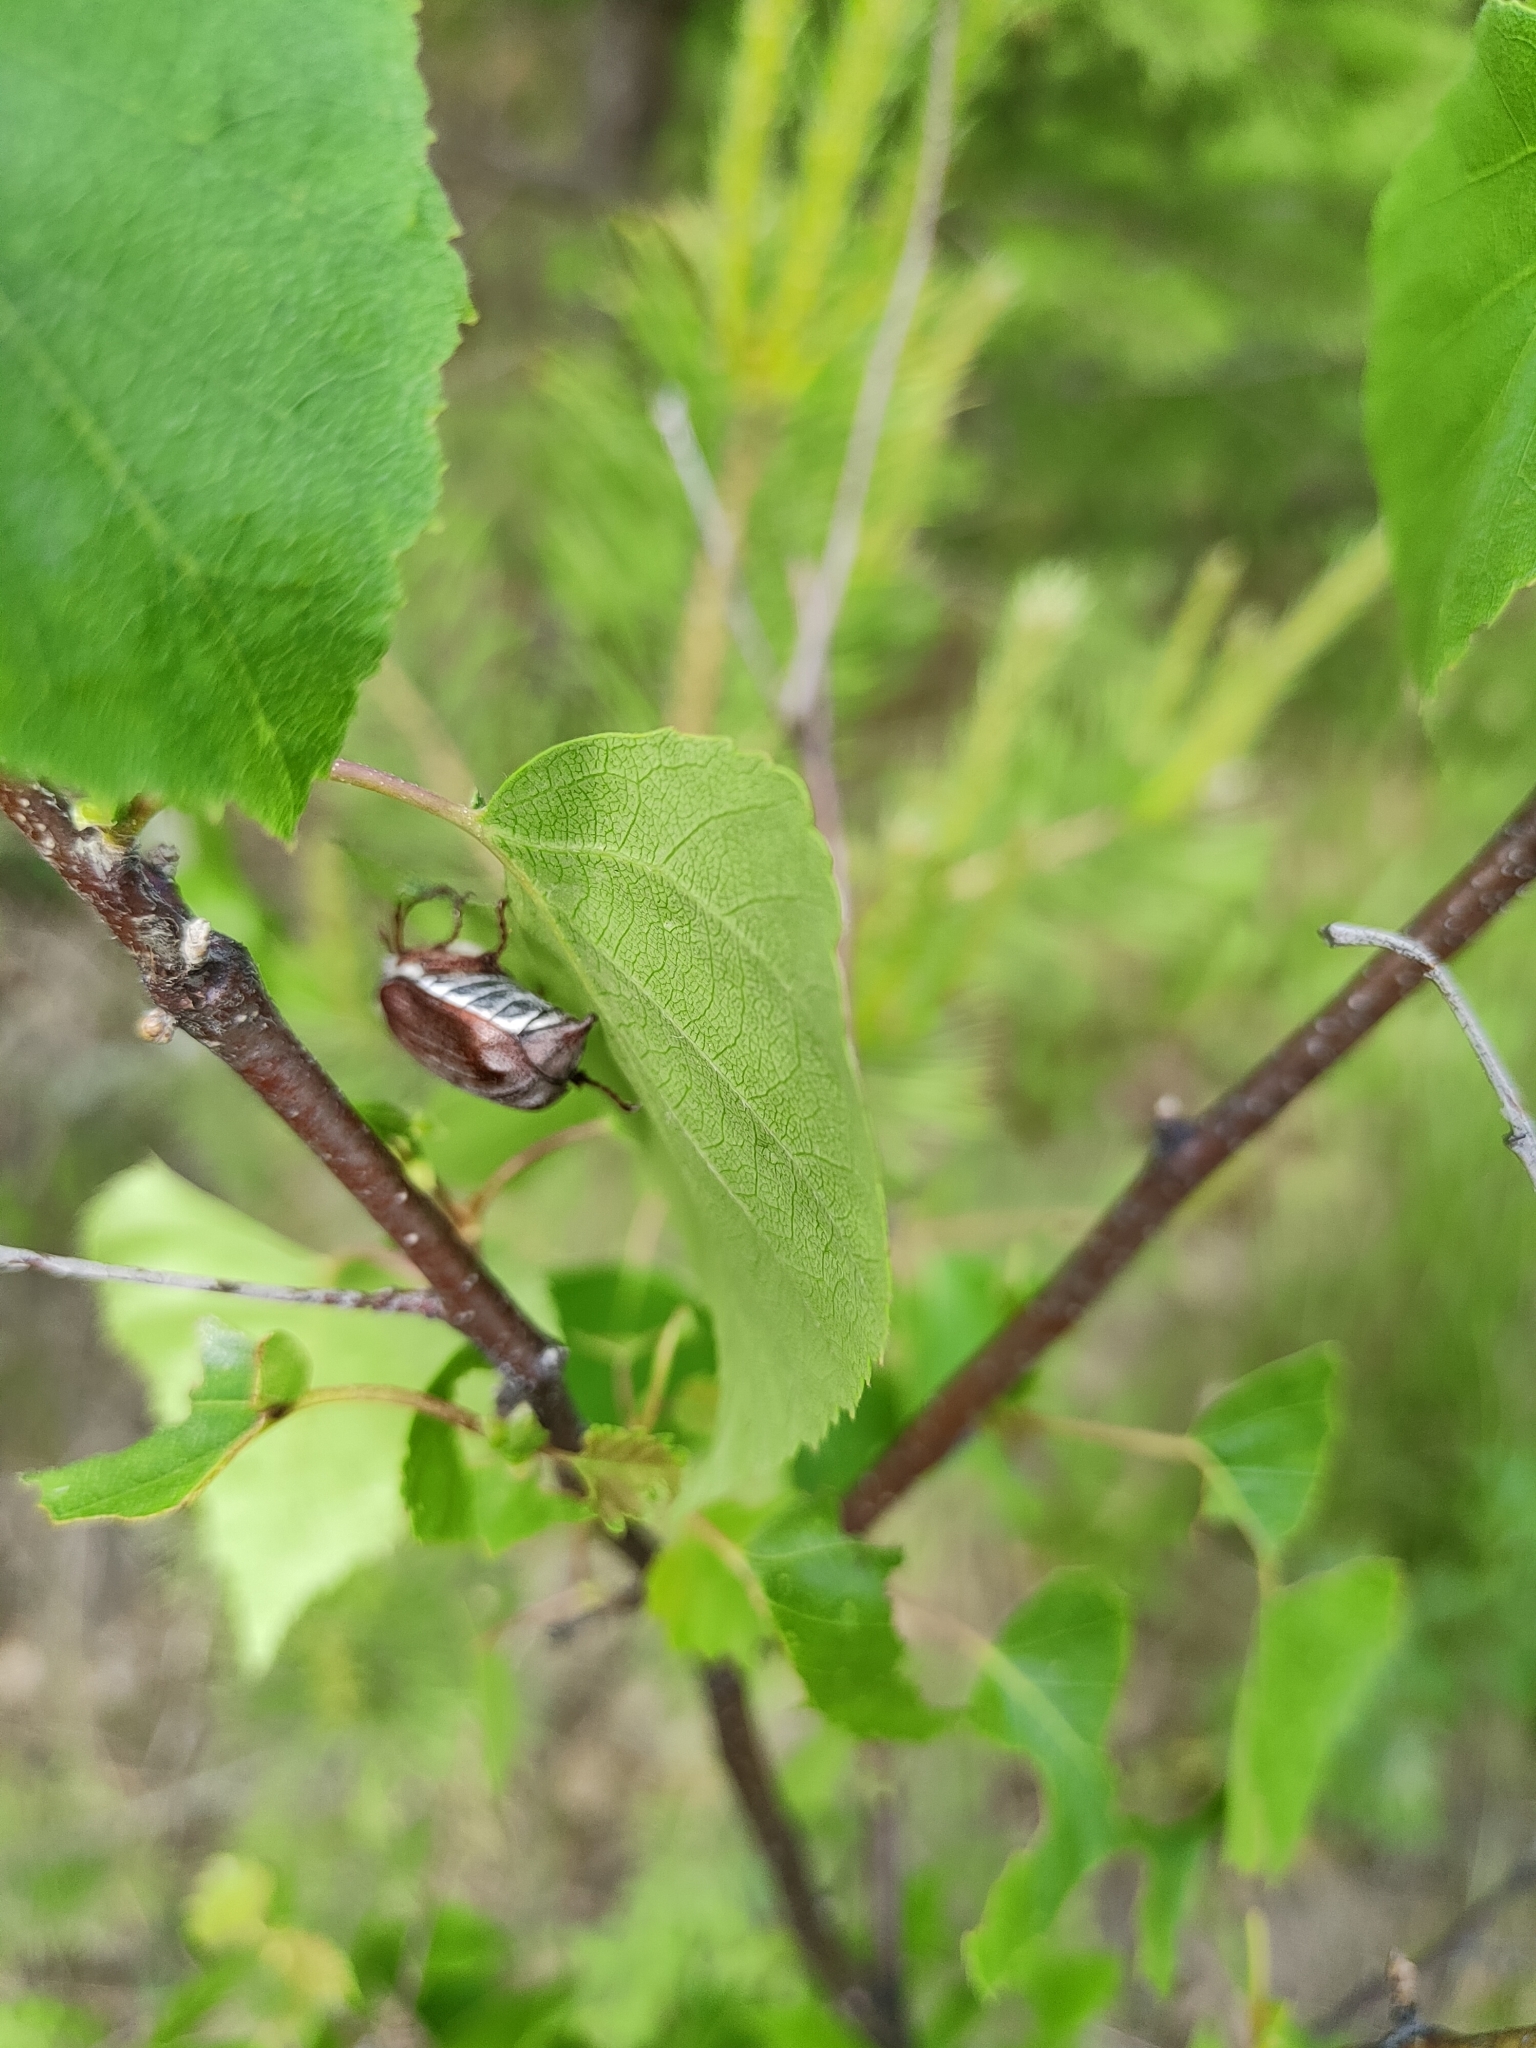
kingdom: Animalia
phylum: Arthropoda
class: Insecta
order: Coleoptera
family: Scarabaeidae
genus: Melolontha
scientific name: Melolontha hippocastani
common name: Chestnut cockchafer
